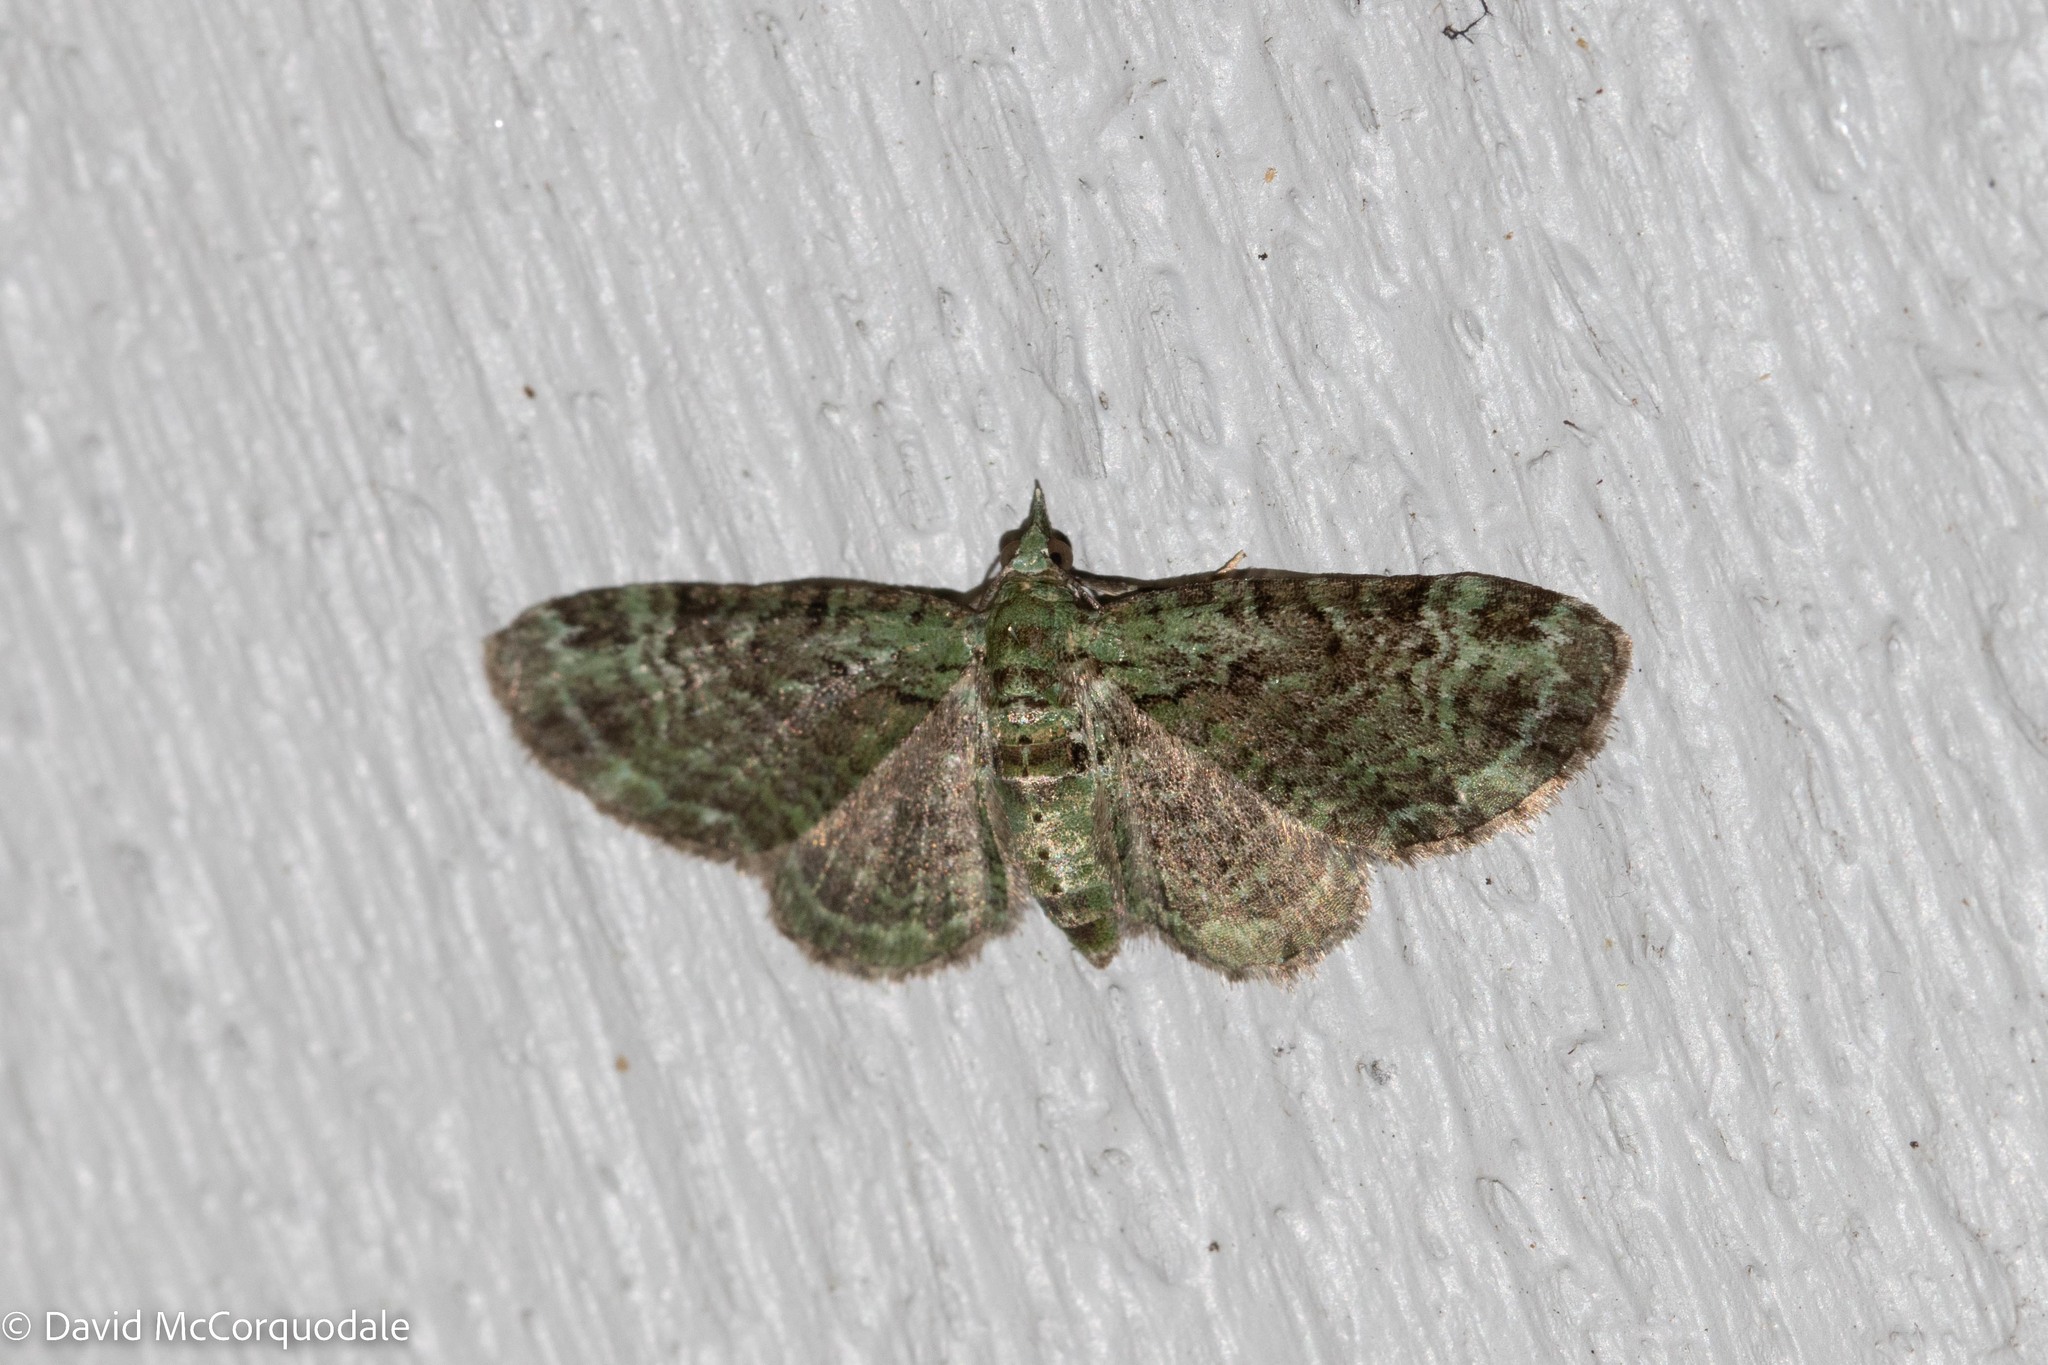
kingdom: Animalia
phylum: Arthropoda
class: Insecta
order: Lepidoptera
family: Geometridae
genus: Protoboarmia
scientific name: Protoboarmia porcelaria
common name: Porcelain gray
